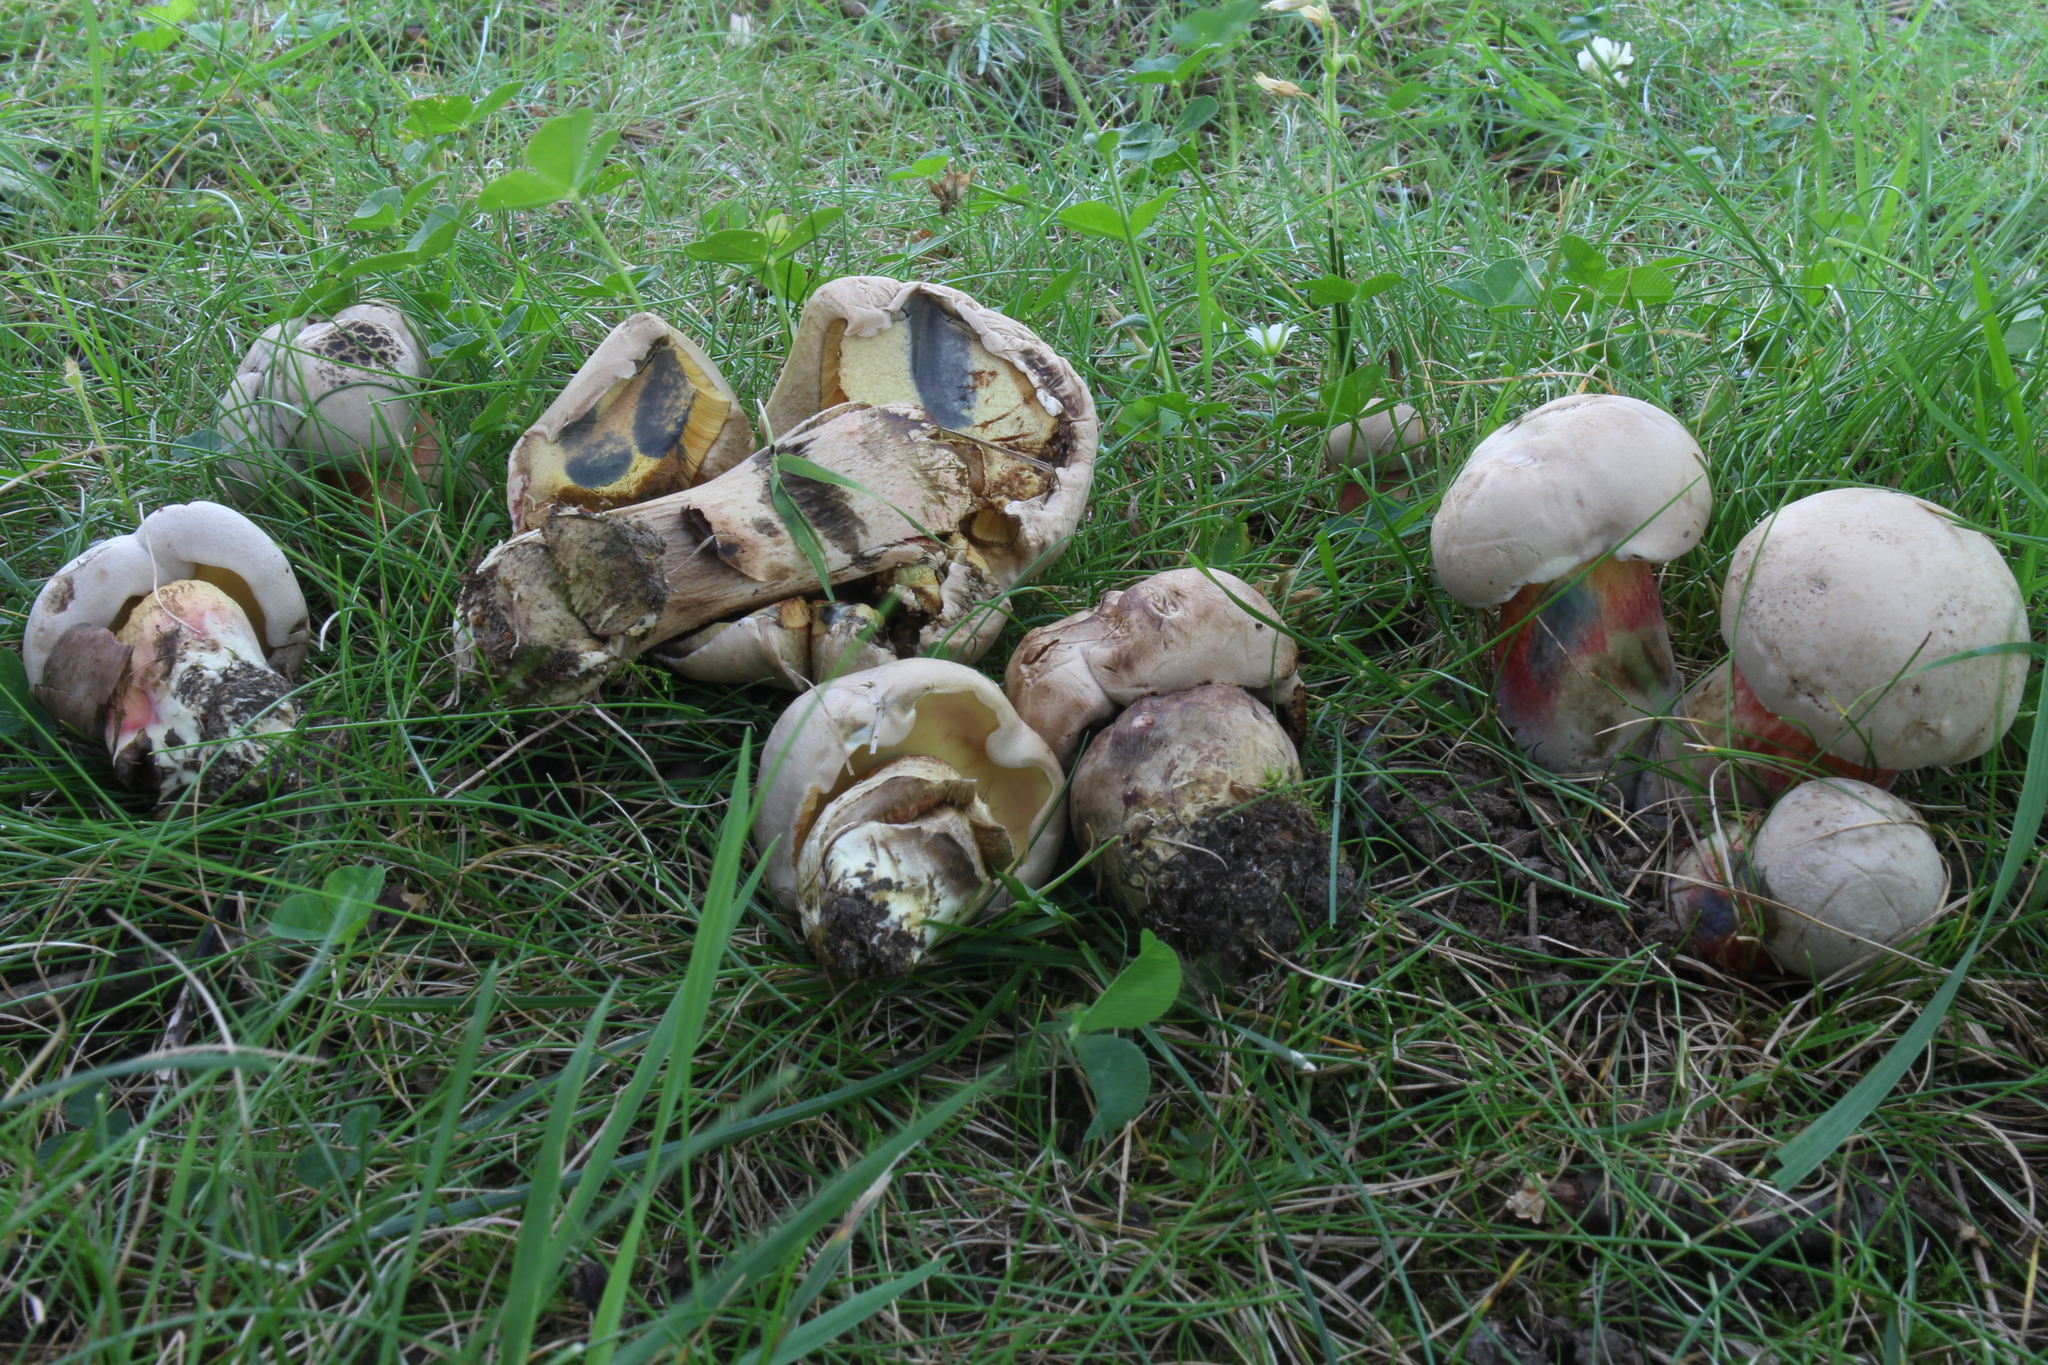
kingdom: Fungi
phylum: Basidiomycota
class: Agaricomycetes
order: Boletales
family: Boletaceae
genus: Caloboletus
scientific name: Caloboletus inedulis
